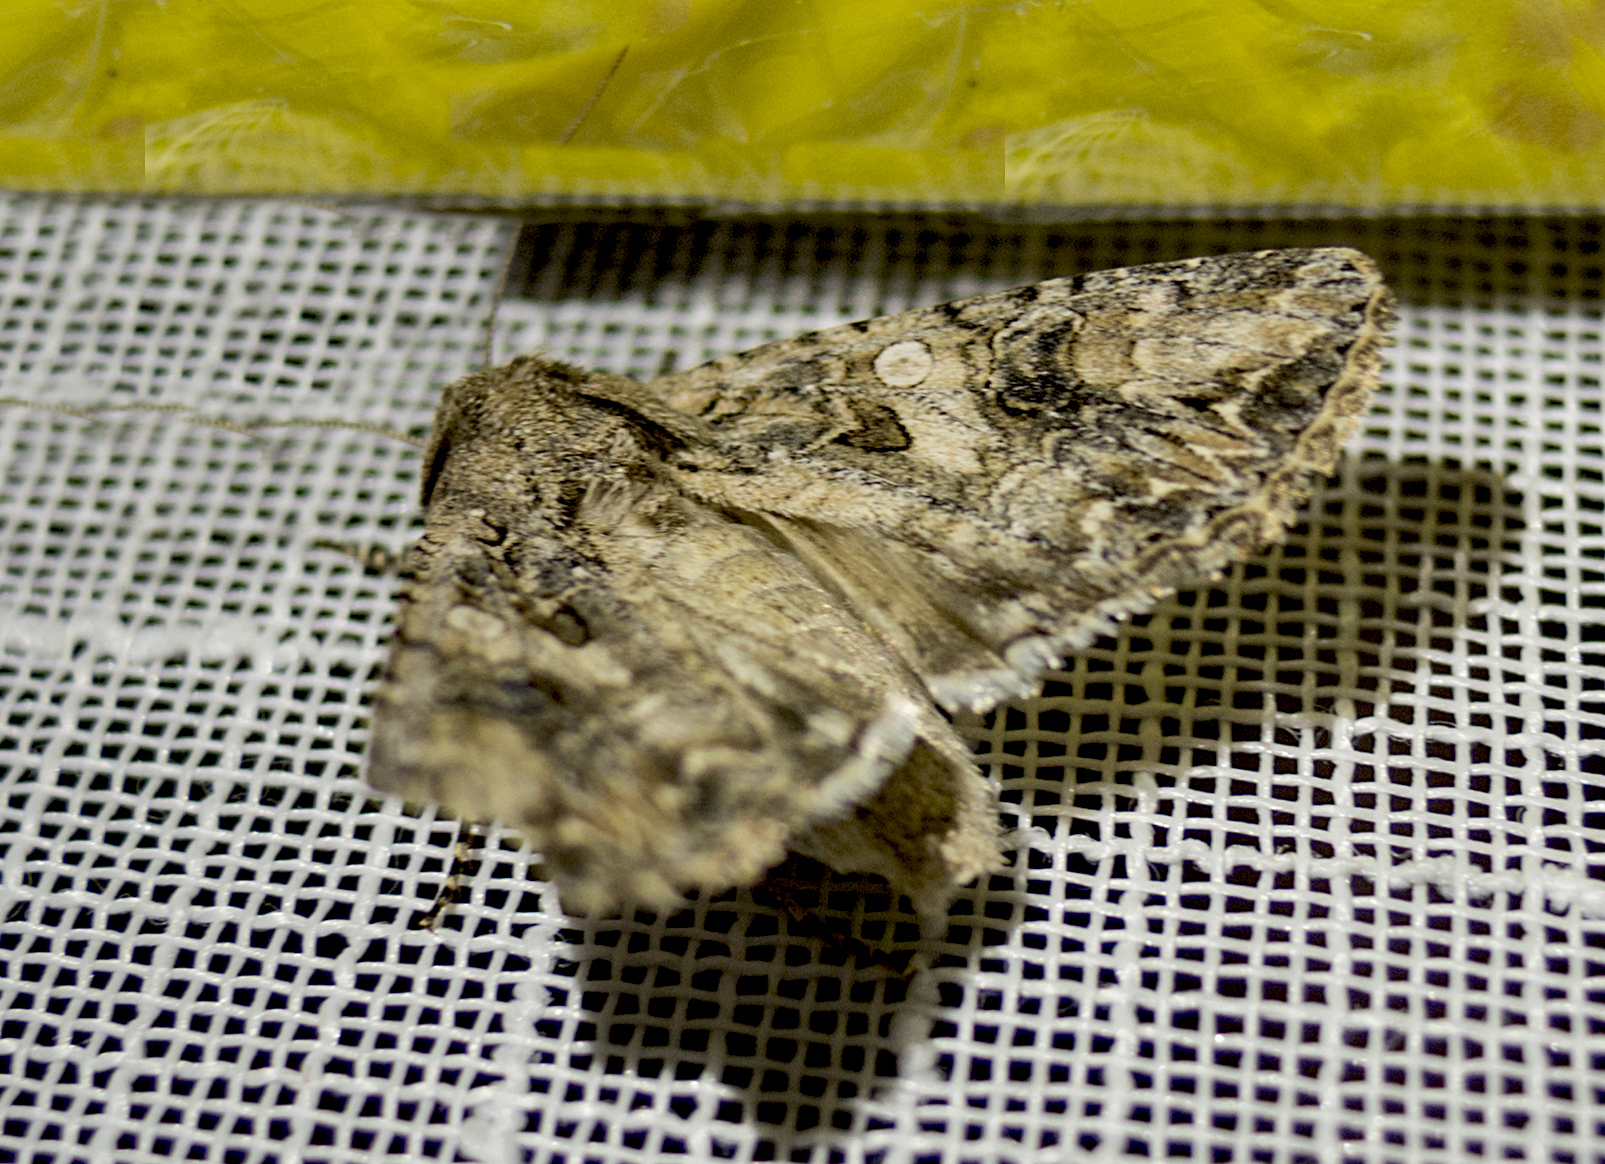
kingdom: Animalia
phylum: Arthropoda
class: Insecta
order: Lepidoptera
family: Noctuidae
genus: Anarta
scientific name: Anarta trifolii
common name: Clover cutworm moth
